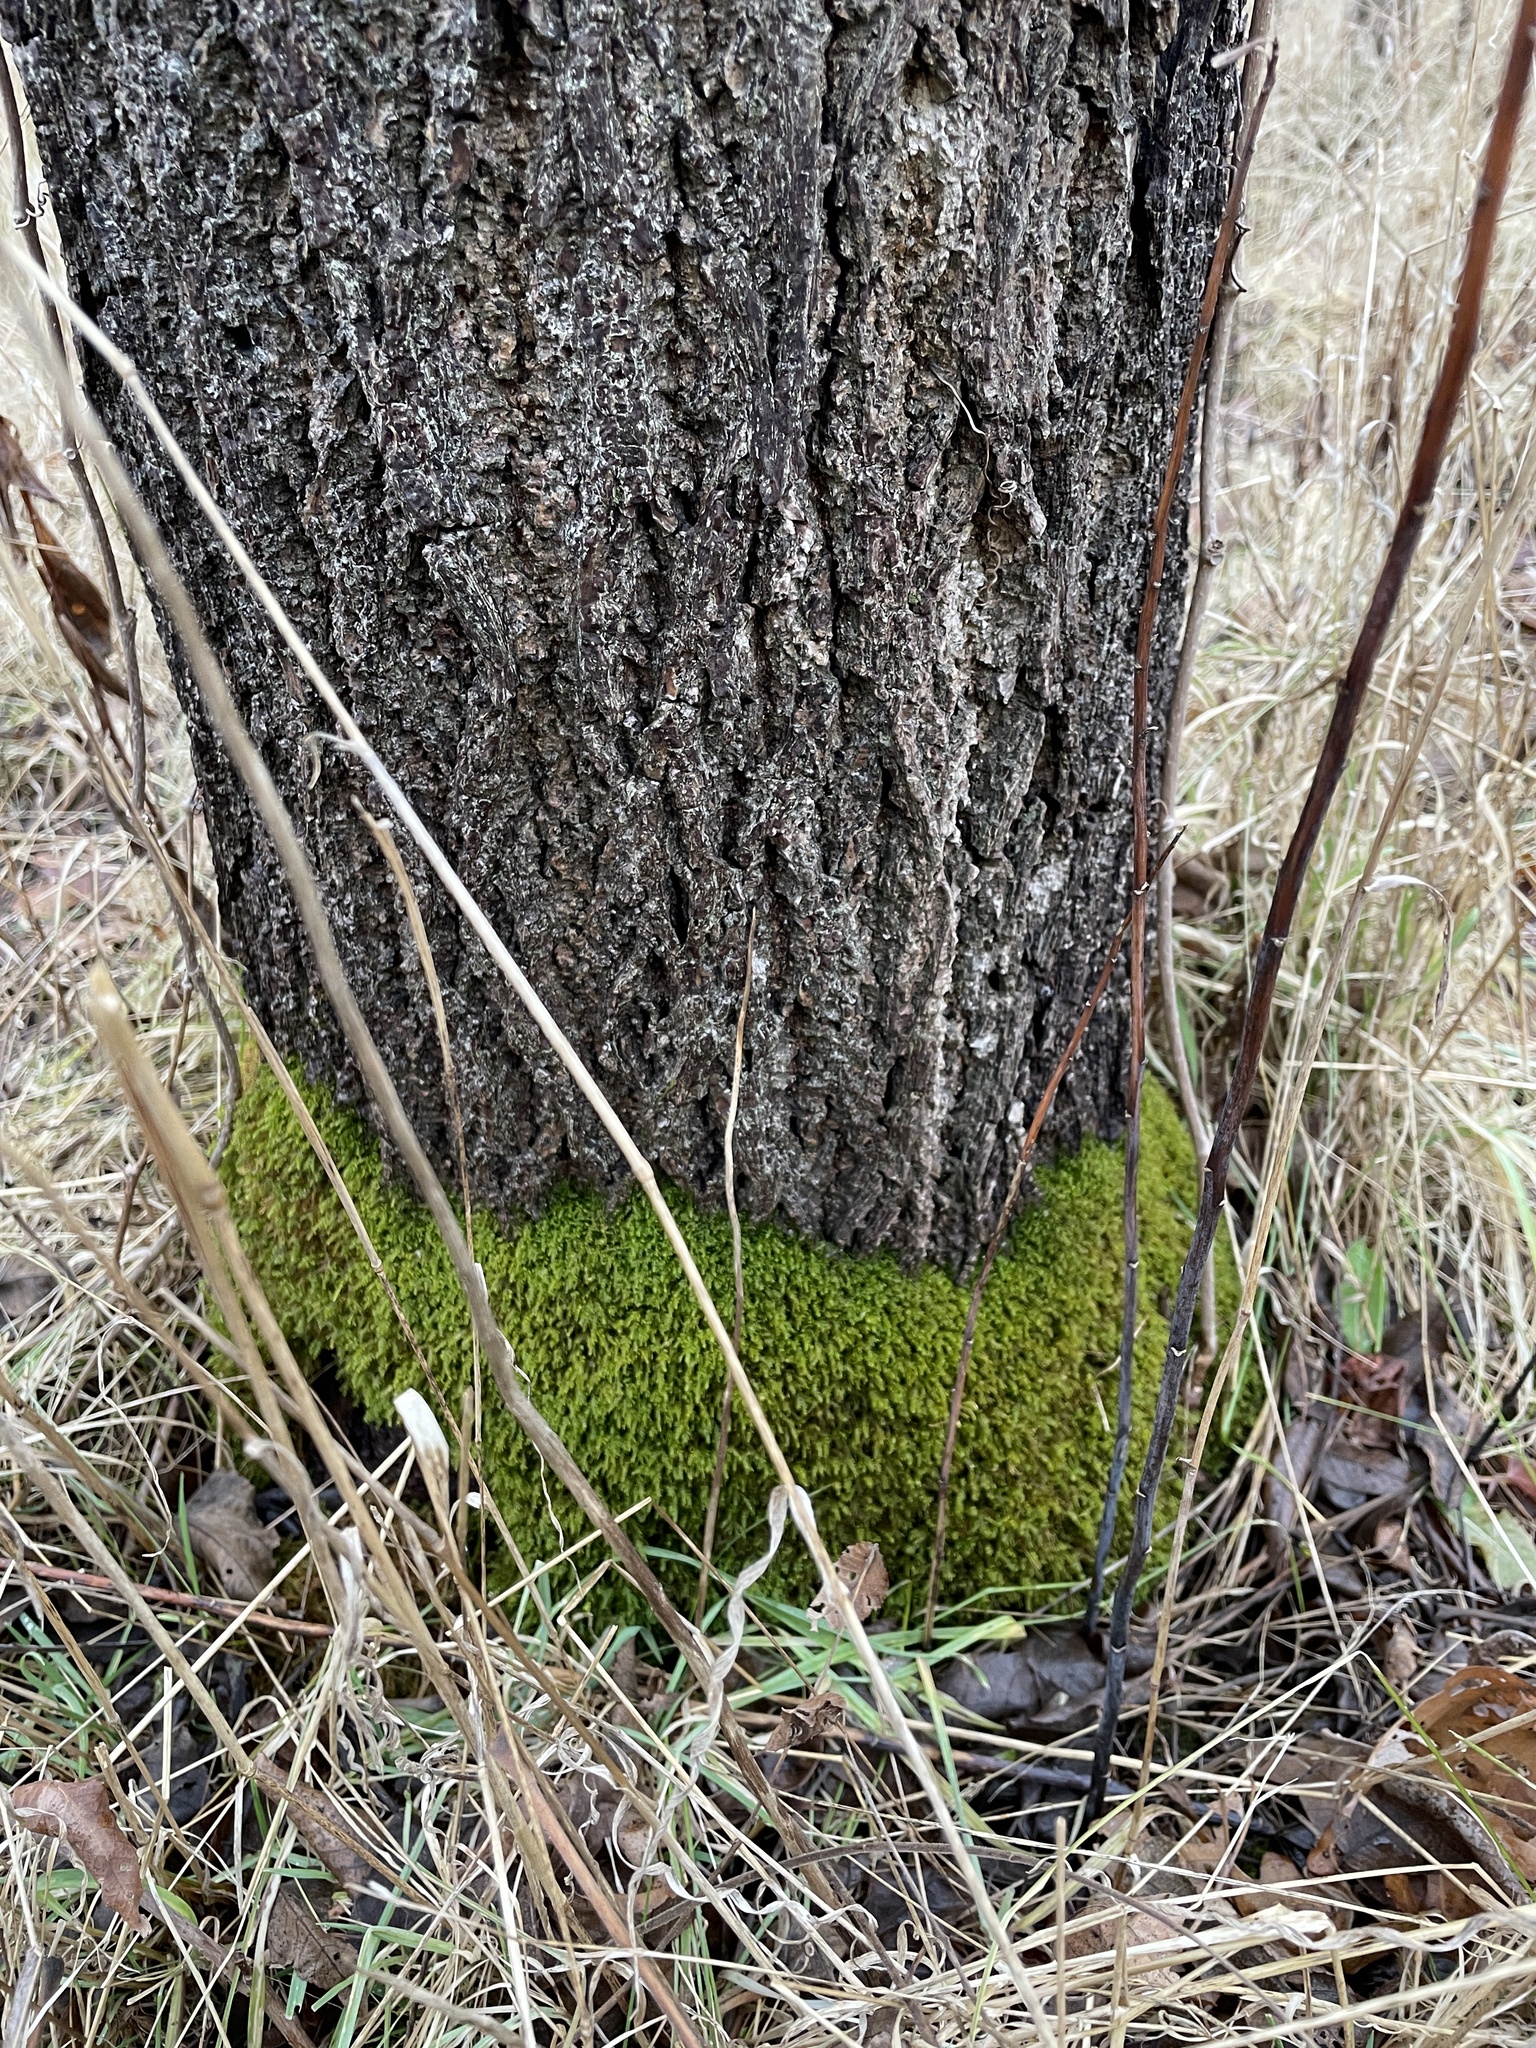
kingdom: Plantae
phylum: Bryophyta
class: Bryopsida
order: Hypnales
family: Neckeraceae
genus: Pseudanomodon
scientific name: Pseudanomodon attenuatus
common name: Tree-skirt moss
